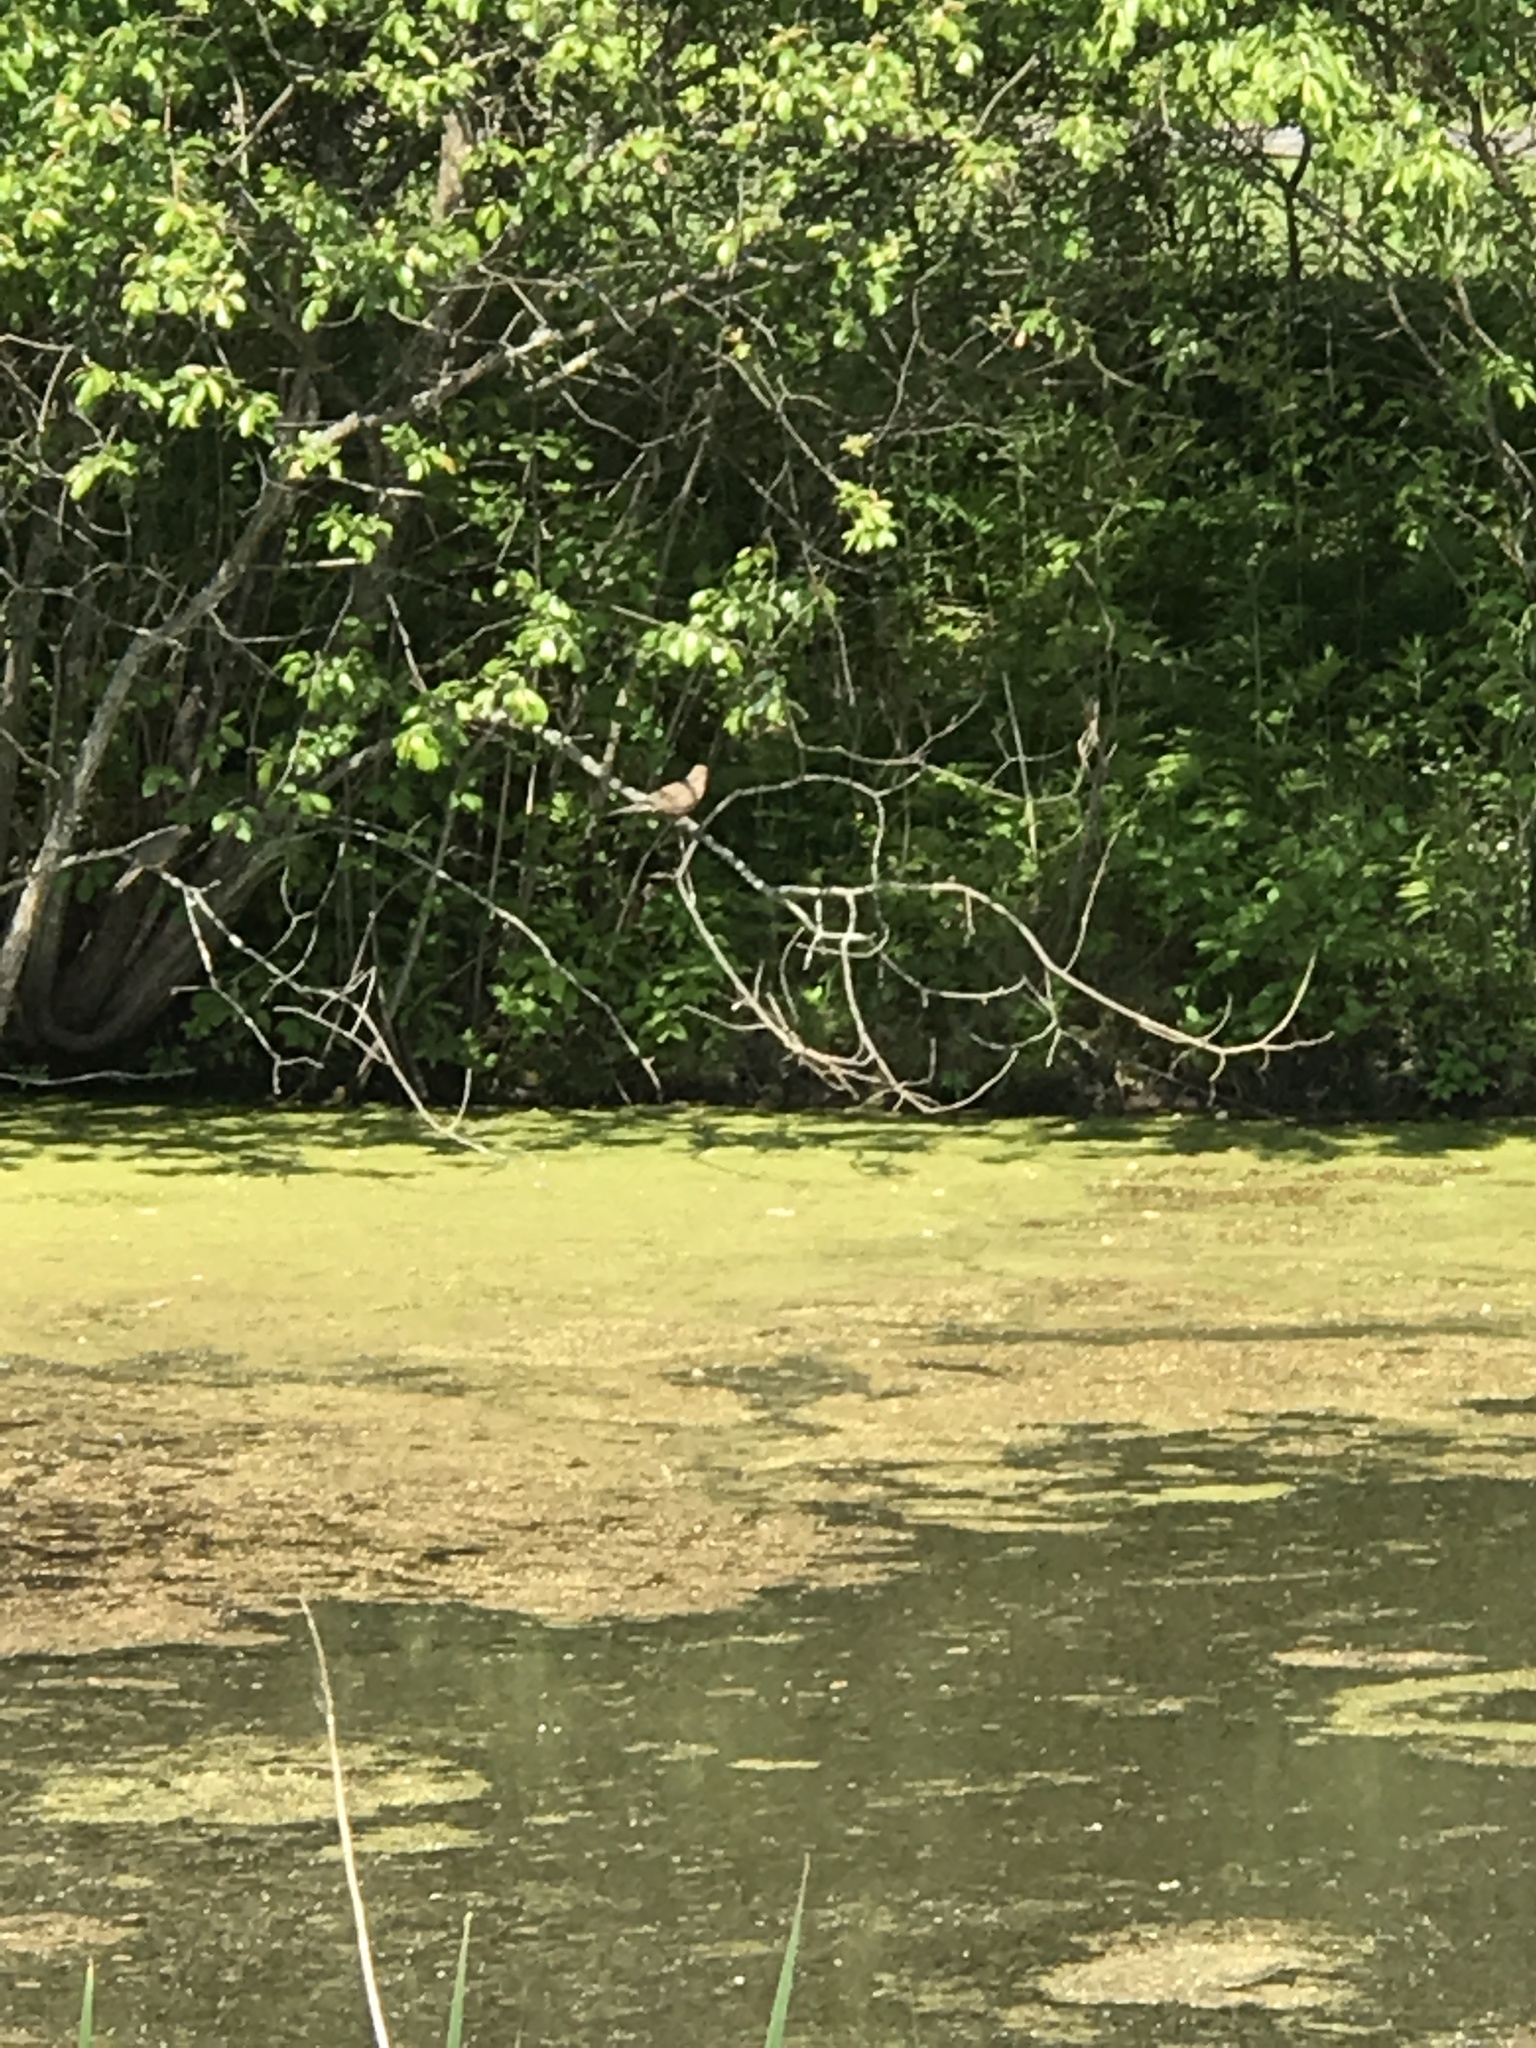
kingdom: Animalia
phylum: Chordata
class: Aves
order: Columbiformes
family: Columbidae
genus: Zenaida
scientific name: Zenaida macroura
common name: Mourning dove
